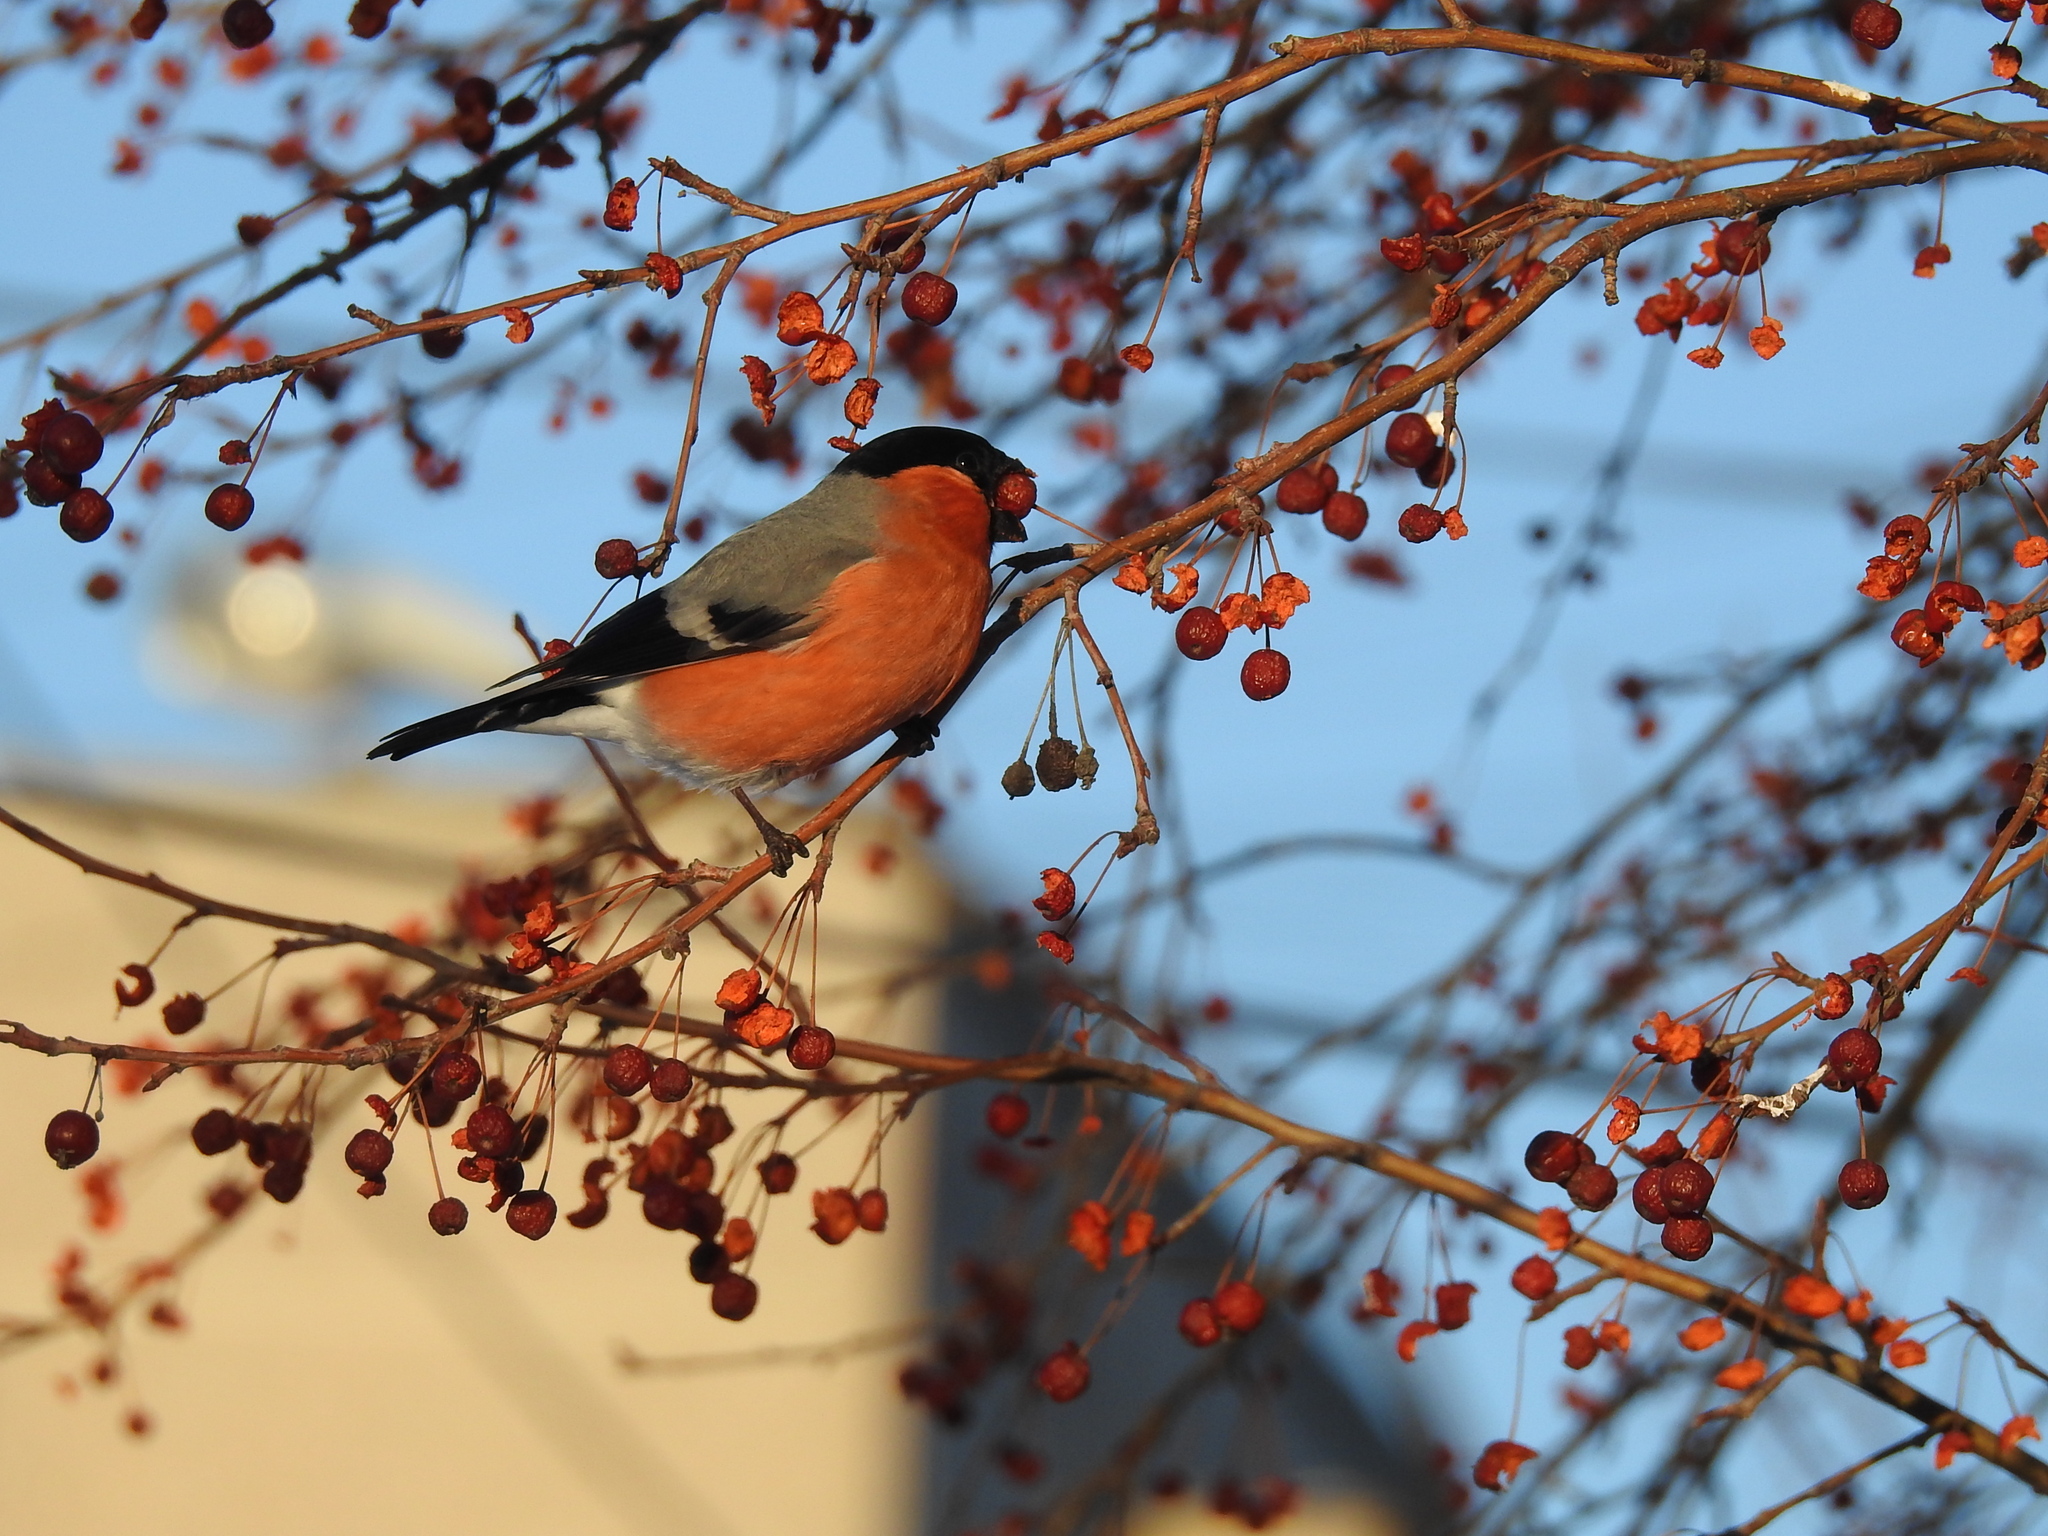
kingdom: Animalia
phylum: Chordata
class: Aves
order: Passeriformes
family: Fringillidae
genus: Pyrrhula
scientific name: Pyrrhula pyrrhula
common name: Eurasian bullfinch
